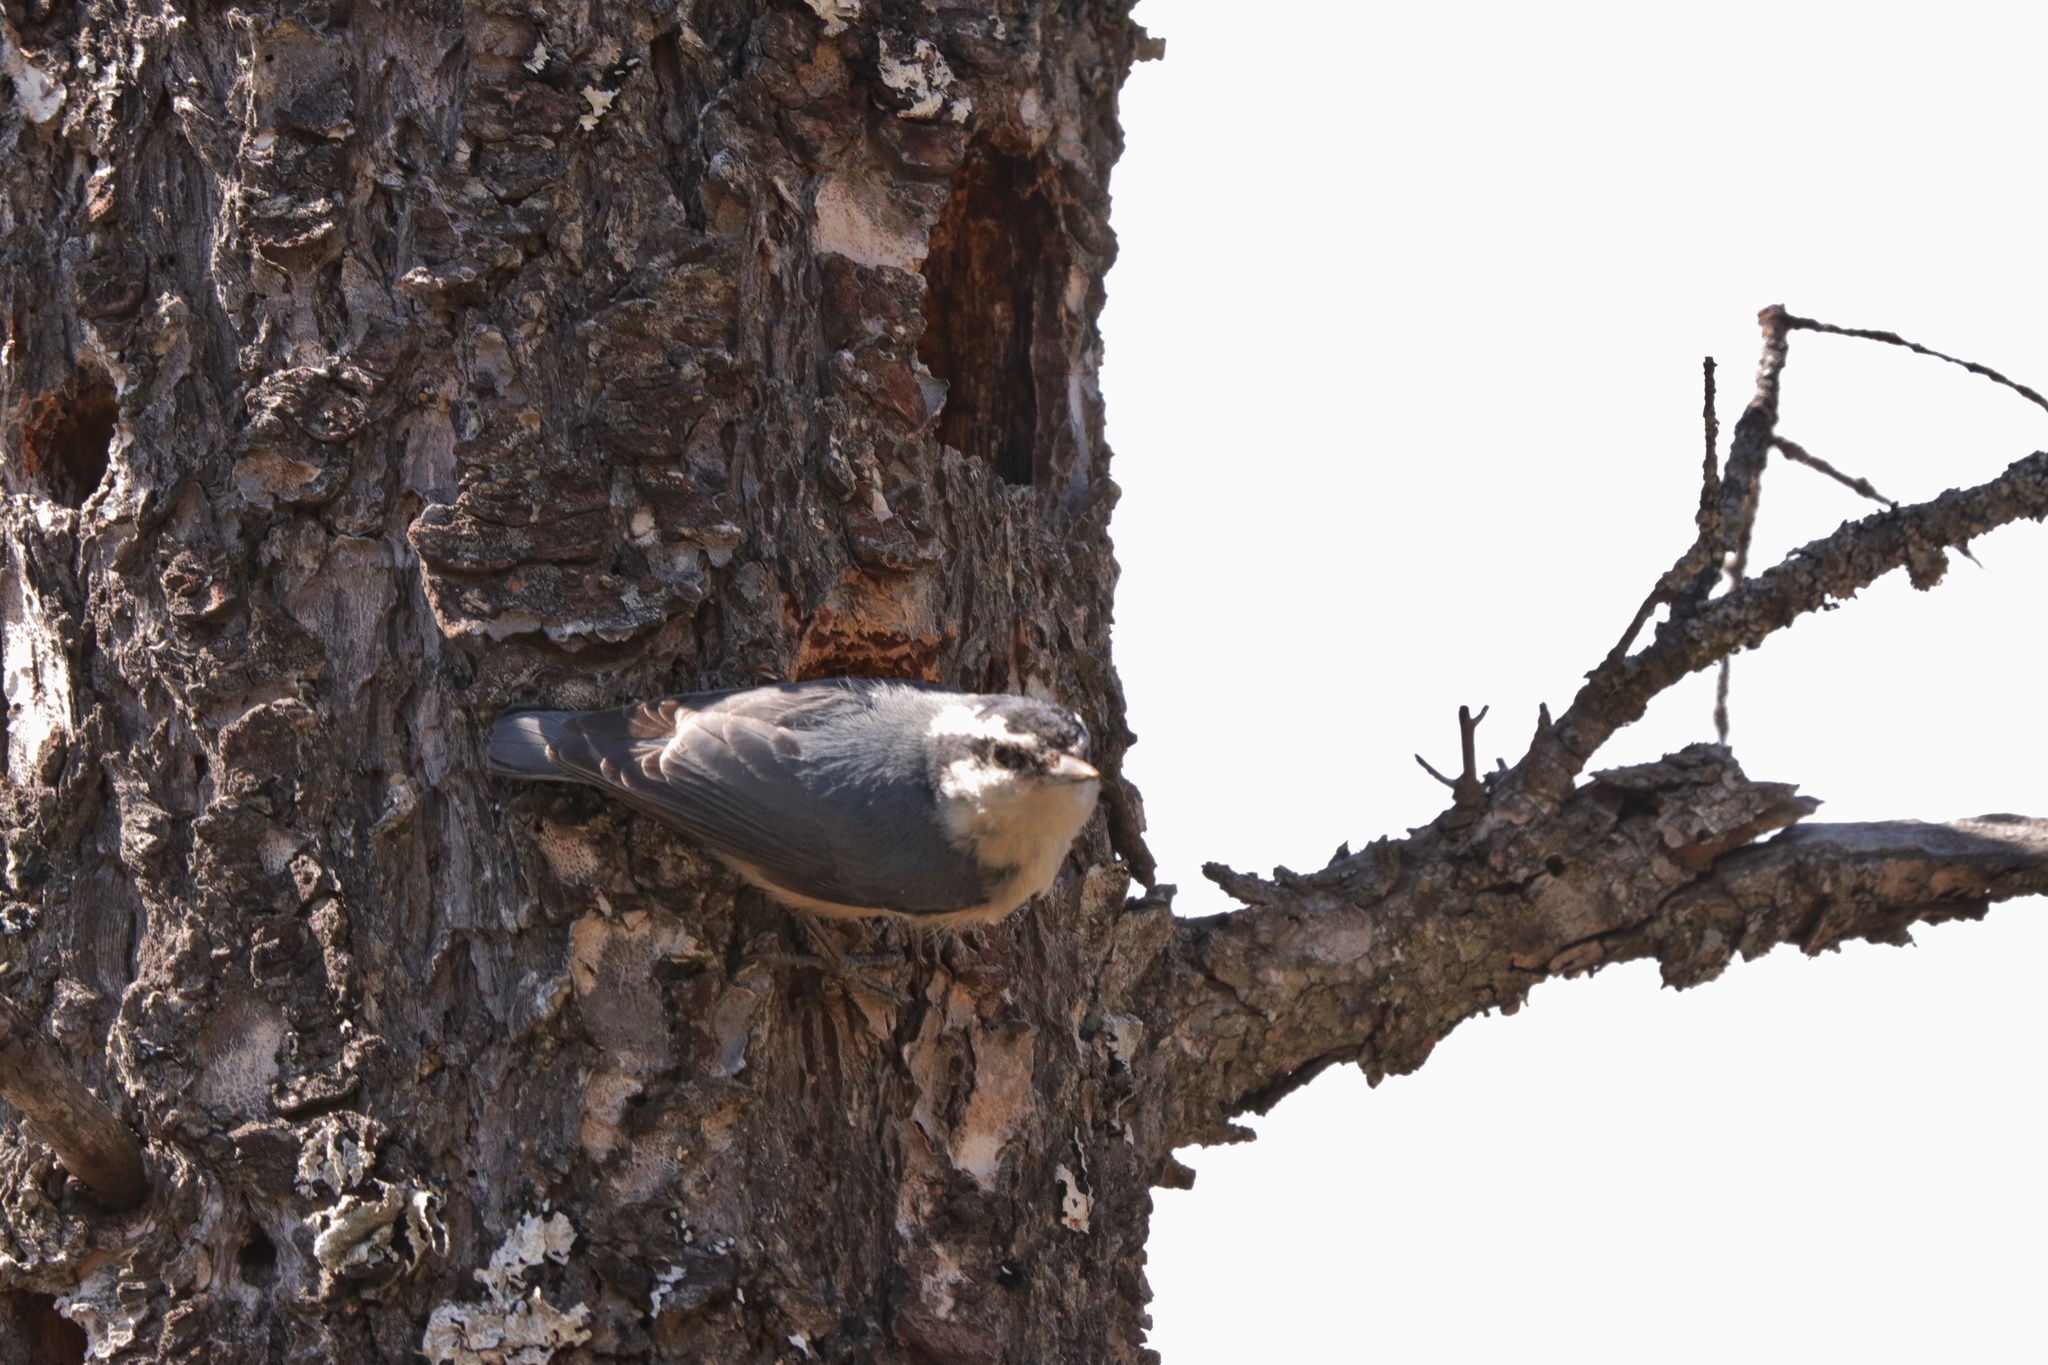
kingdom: Animalia
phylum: Chordata
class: Aves
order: Passeriformes
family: Sittidae
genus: Sitta
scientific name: Sitta canadensis
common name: Red-breasted nuthatch
